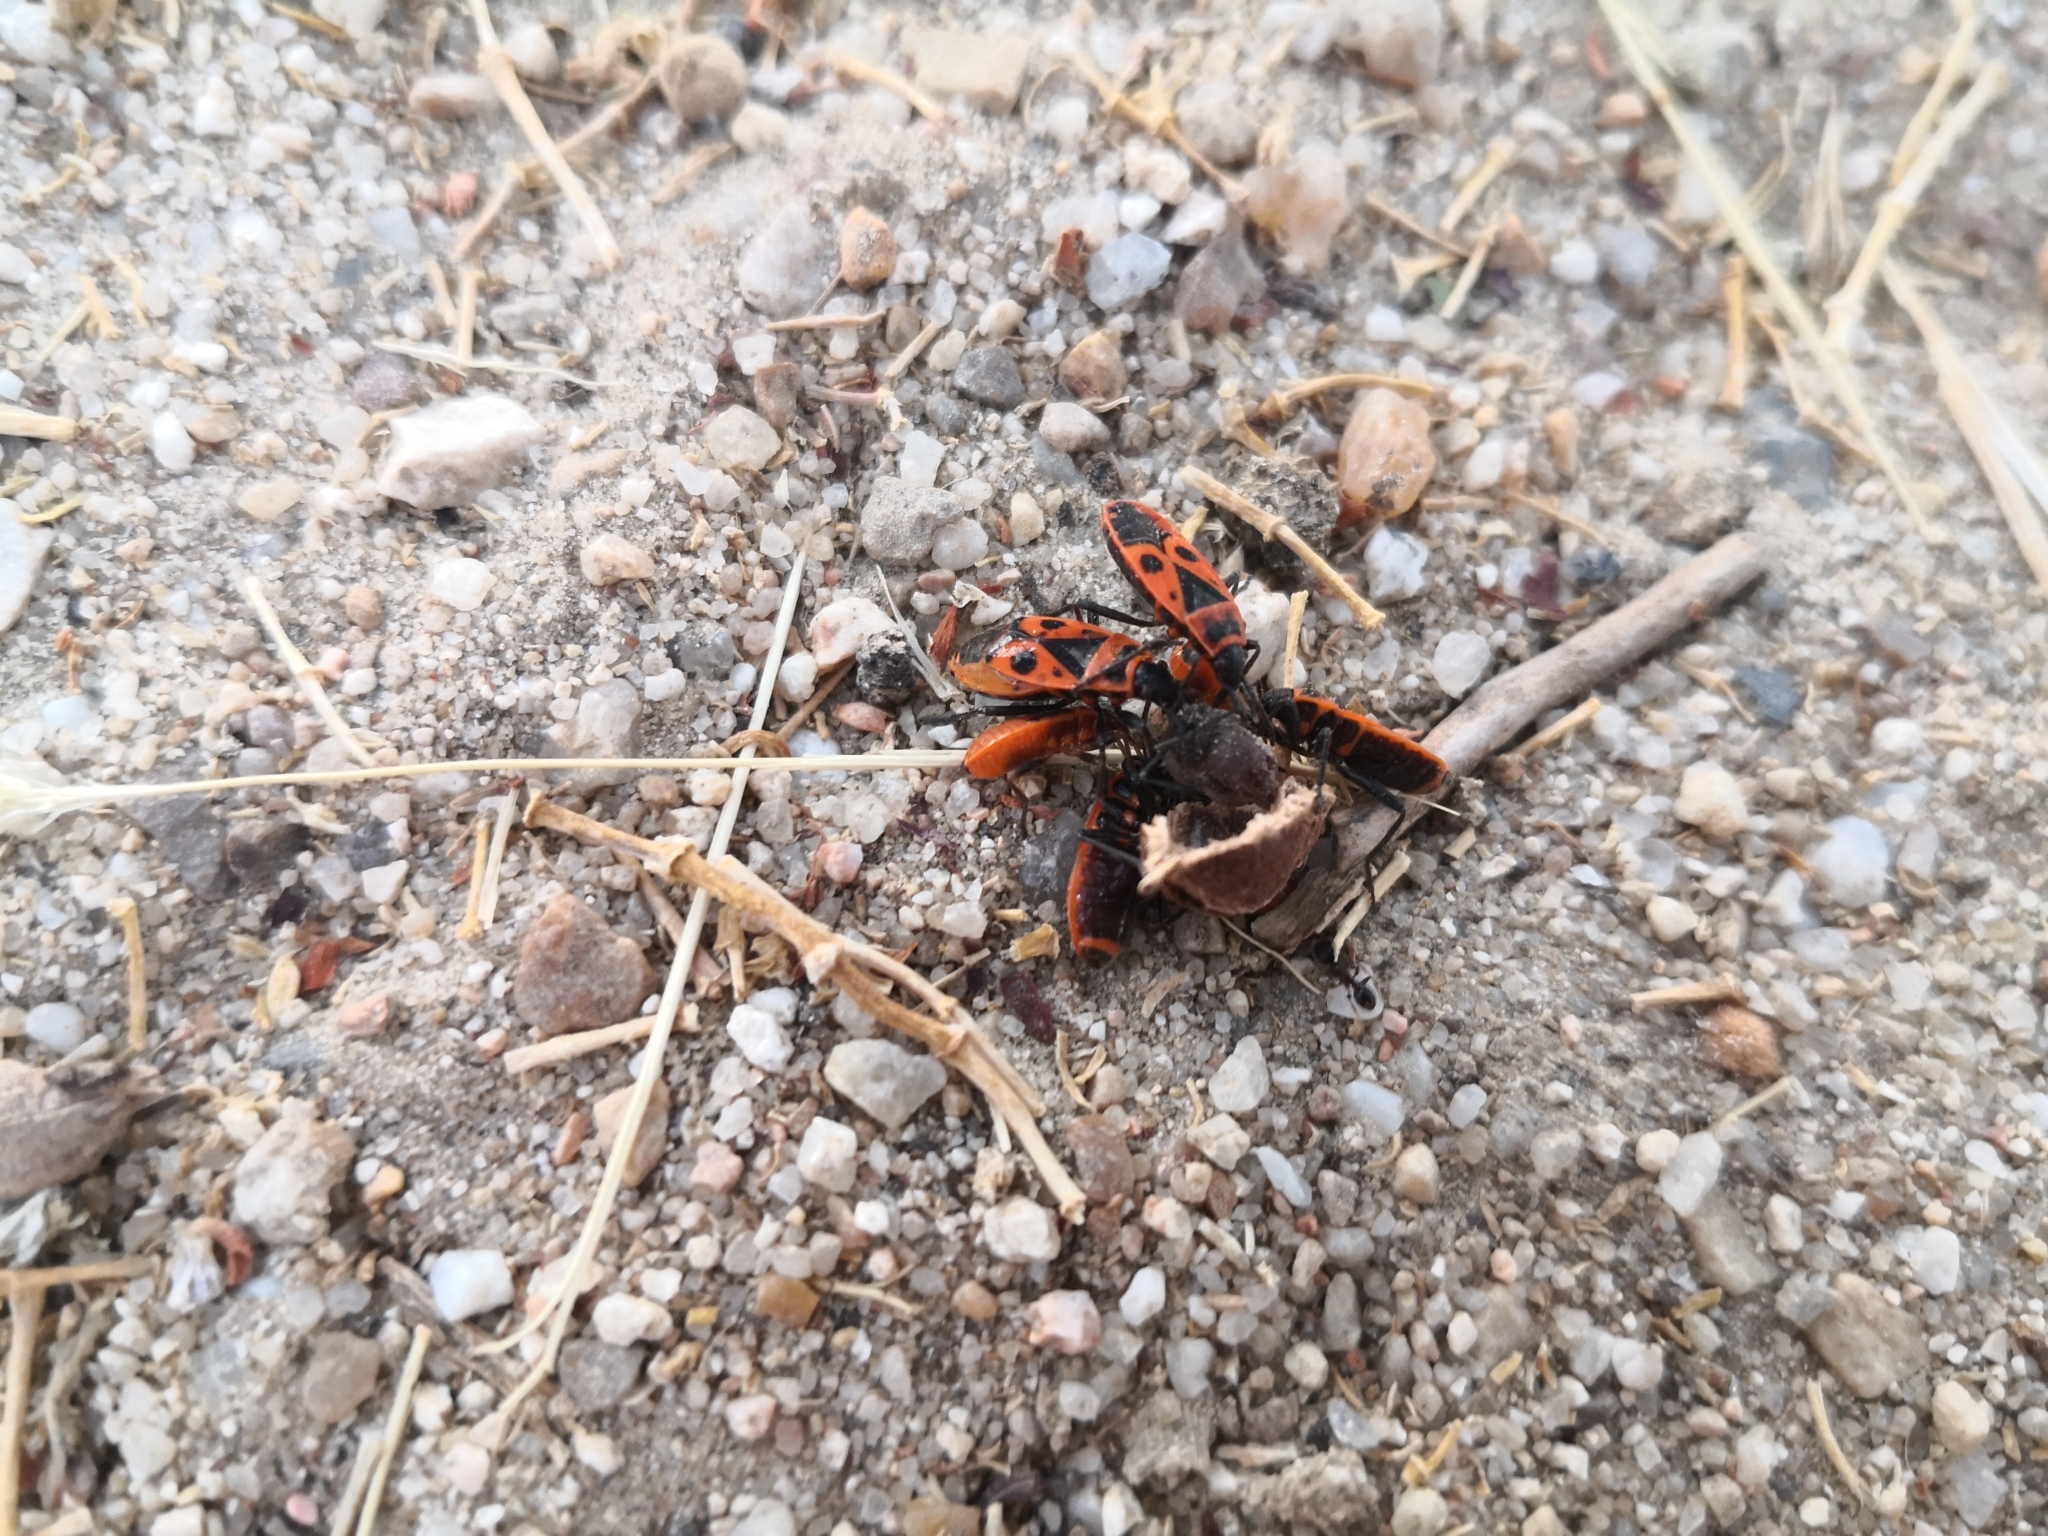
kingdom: Animalia
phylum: Arthropoda
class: Insecta
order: Hemiptera
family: Pyrrhocoridae
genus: Pyrrhocoris
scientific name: Pyrrhocoris apterus
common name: Firebug
